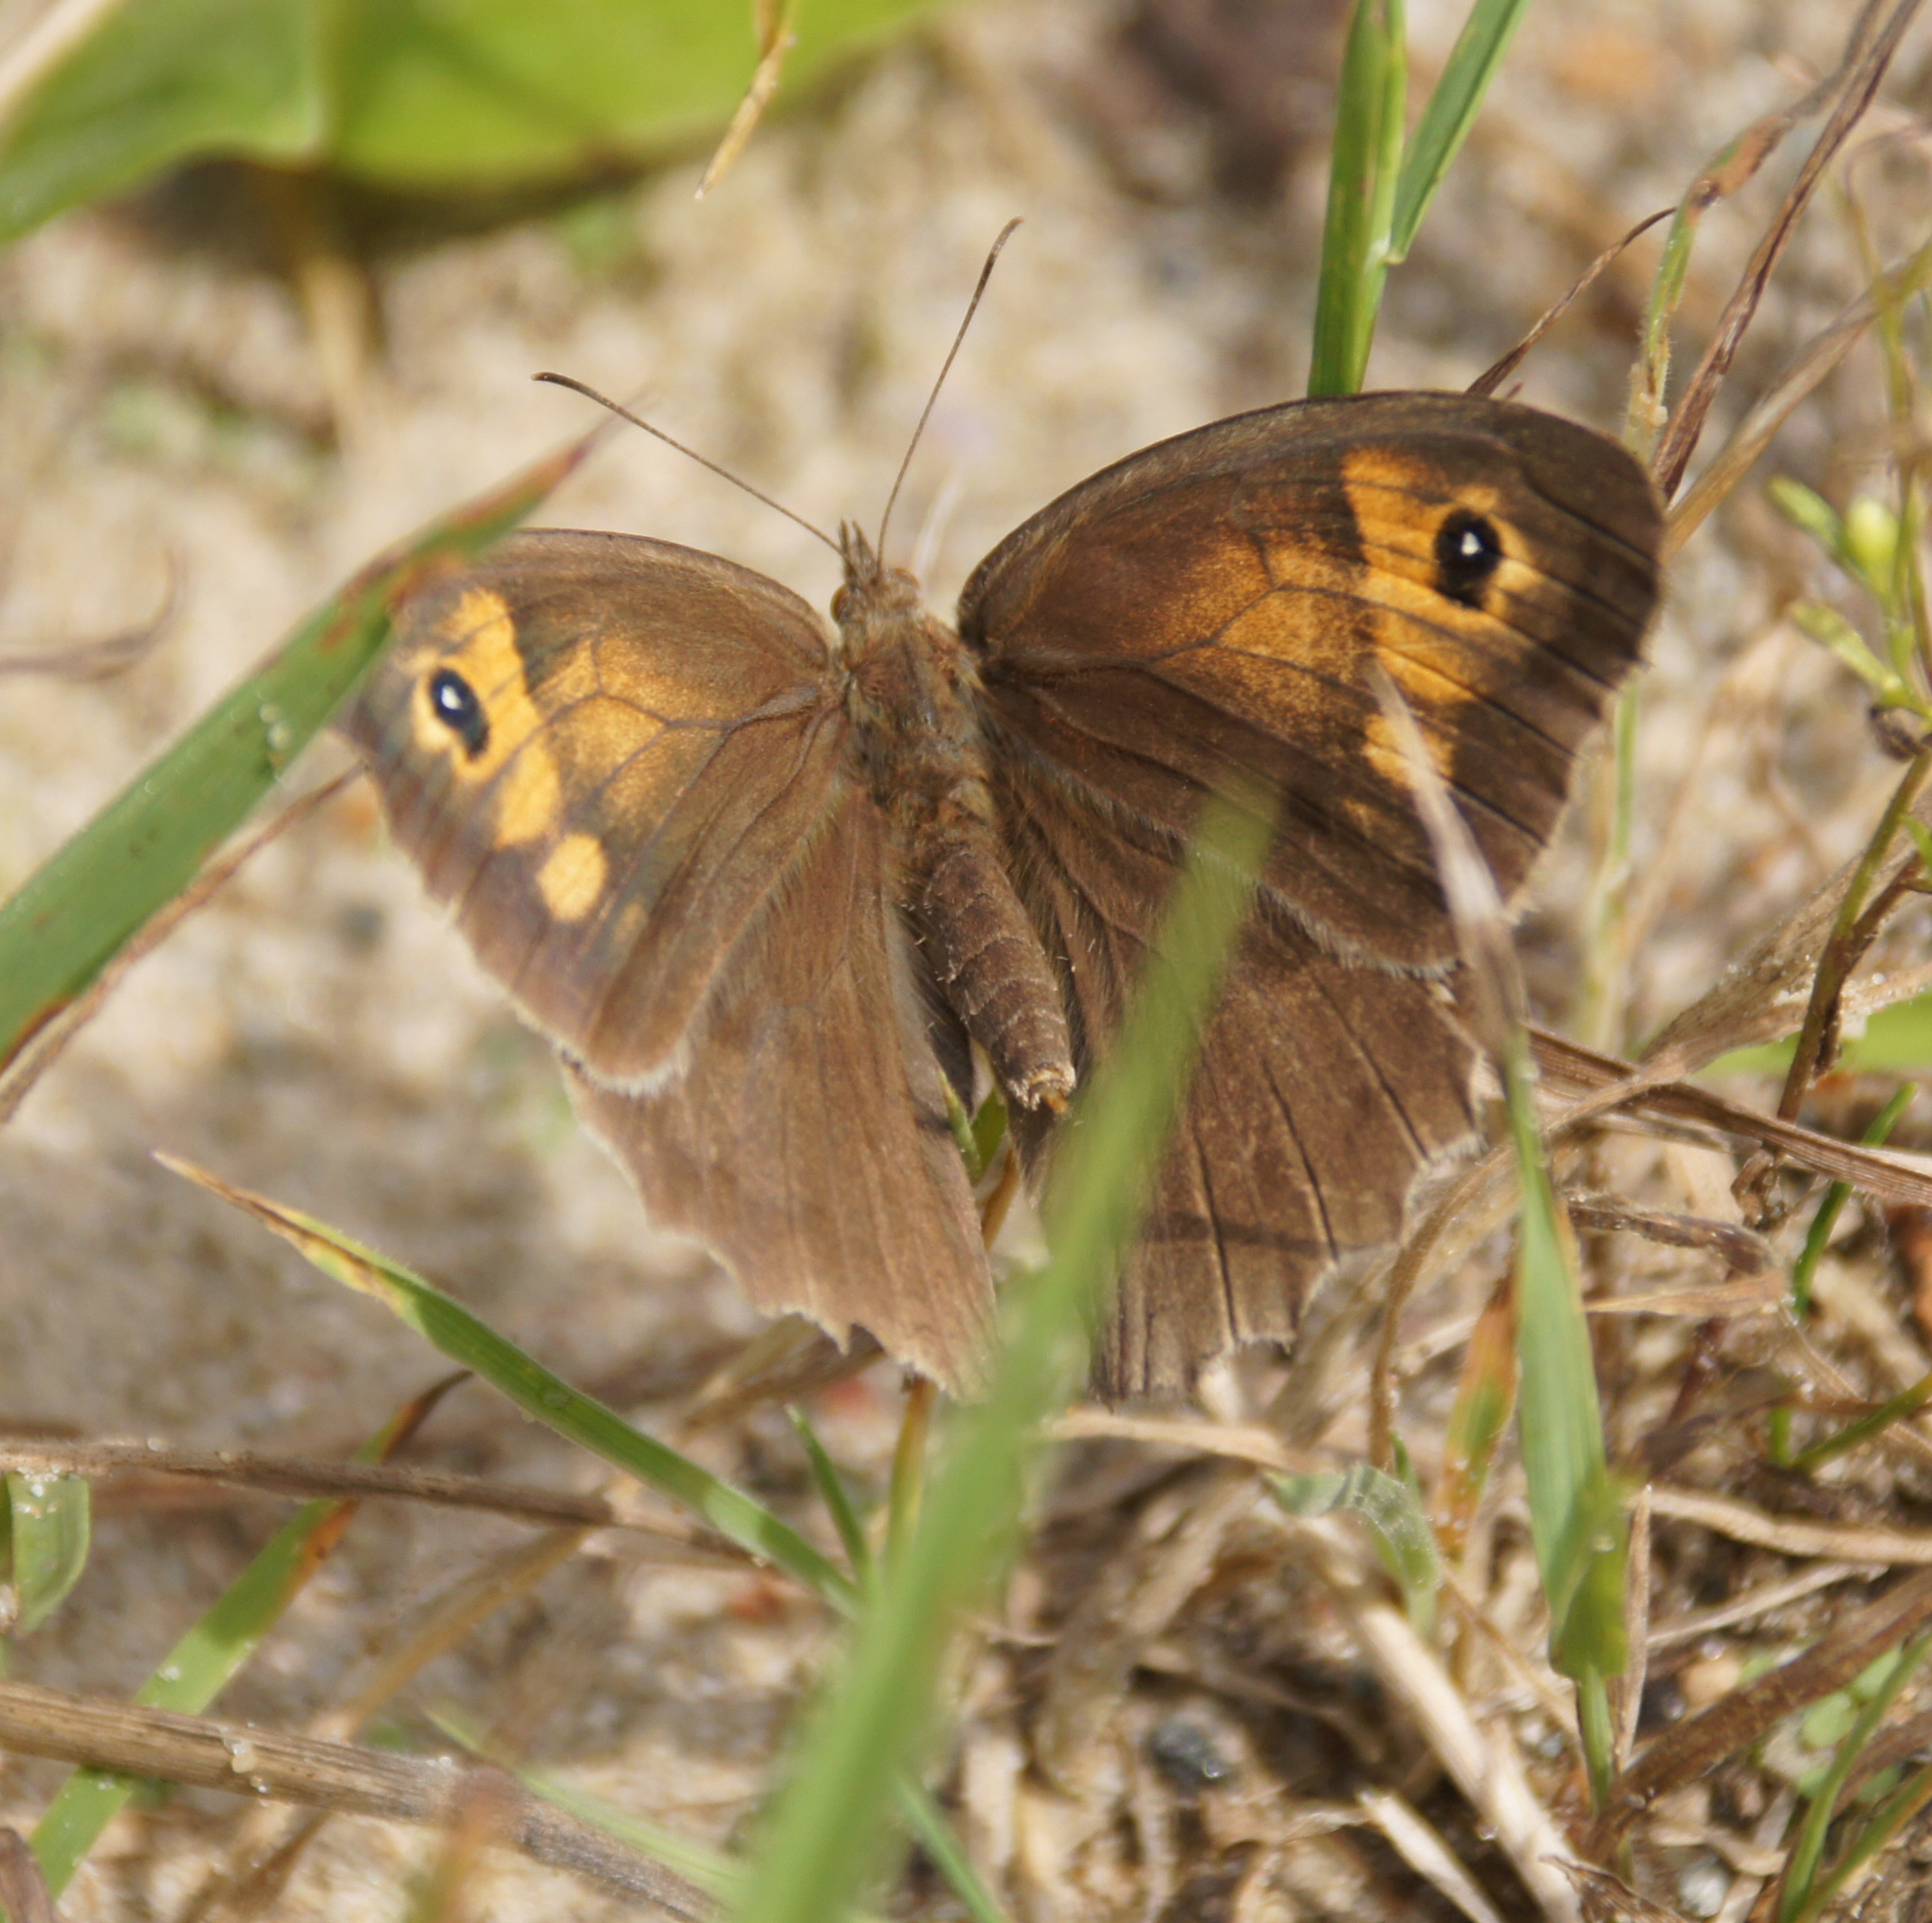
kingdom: Animalia
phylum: Arthropoda
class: Insecta
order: Lepidoptera
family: Nymphalidae
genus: Maniola
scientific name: Maniola jurtina
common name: Meadow brown
